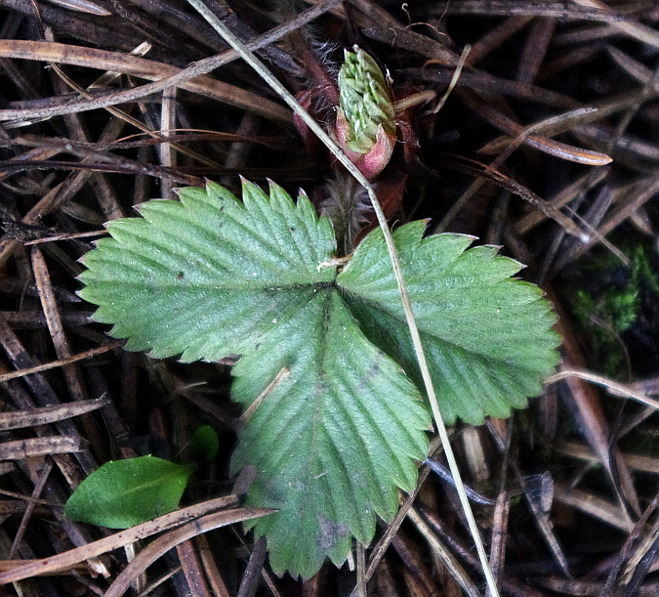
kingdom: Plantae
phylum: Tracheophyta
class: Magnoliopsida
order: Rosales
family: Rosaceae
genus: Fragaria
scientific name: Fragaria vesca
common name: Wild strawberry
